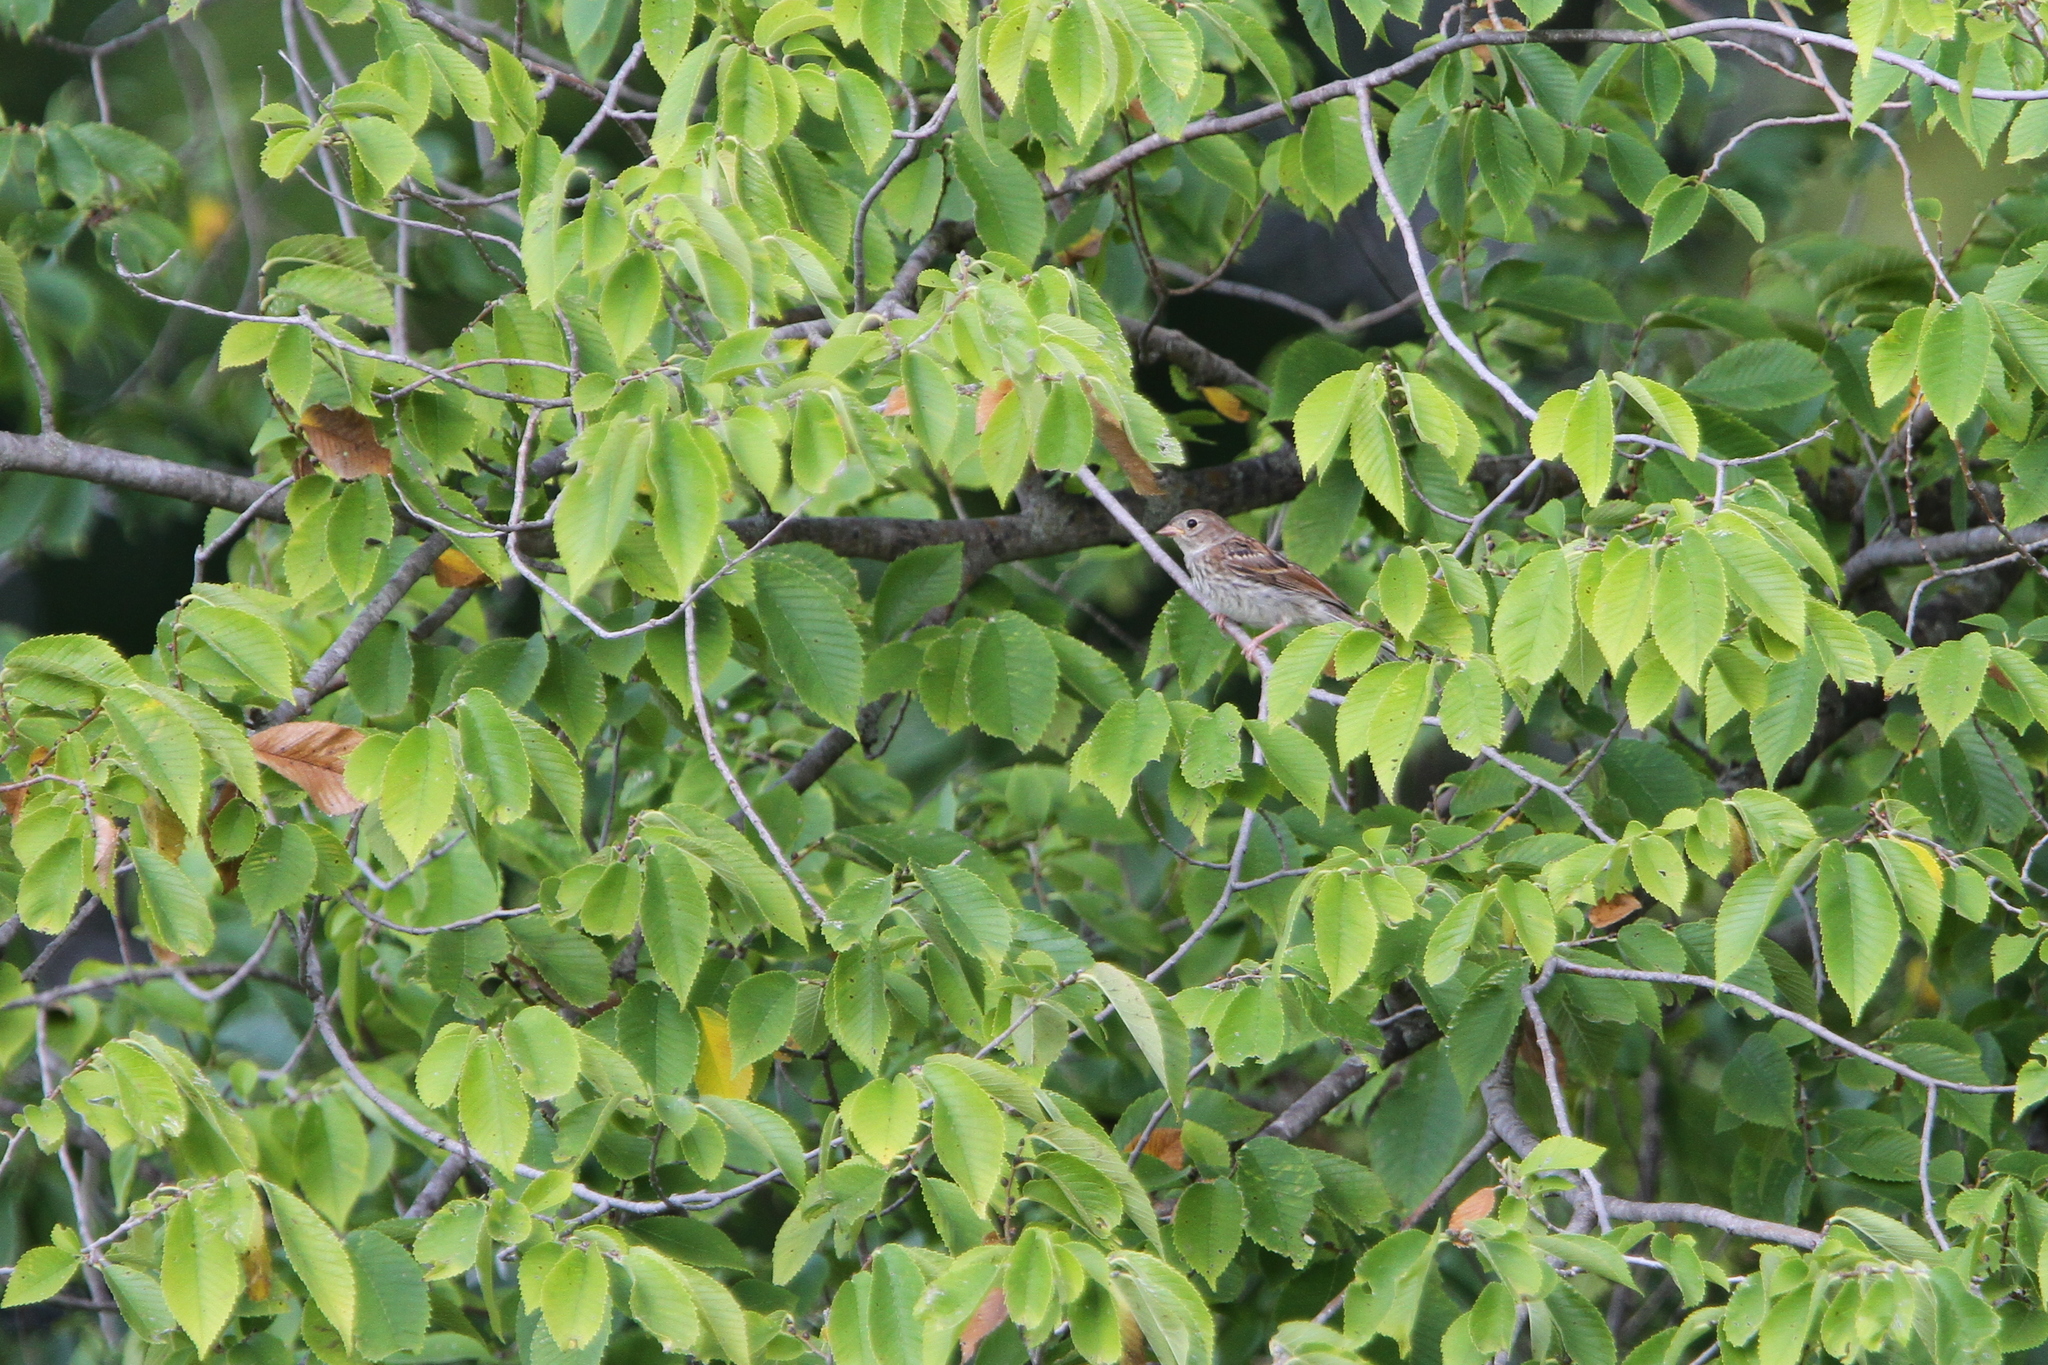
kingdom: Animalia
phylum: Chordata
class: Aves
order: Passeriformes
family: Passerellidae
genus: Spizella
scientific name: Spizella pusilla
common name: Field sparrow
